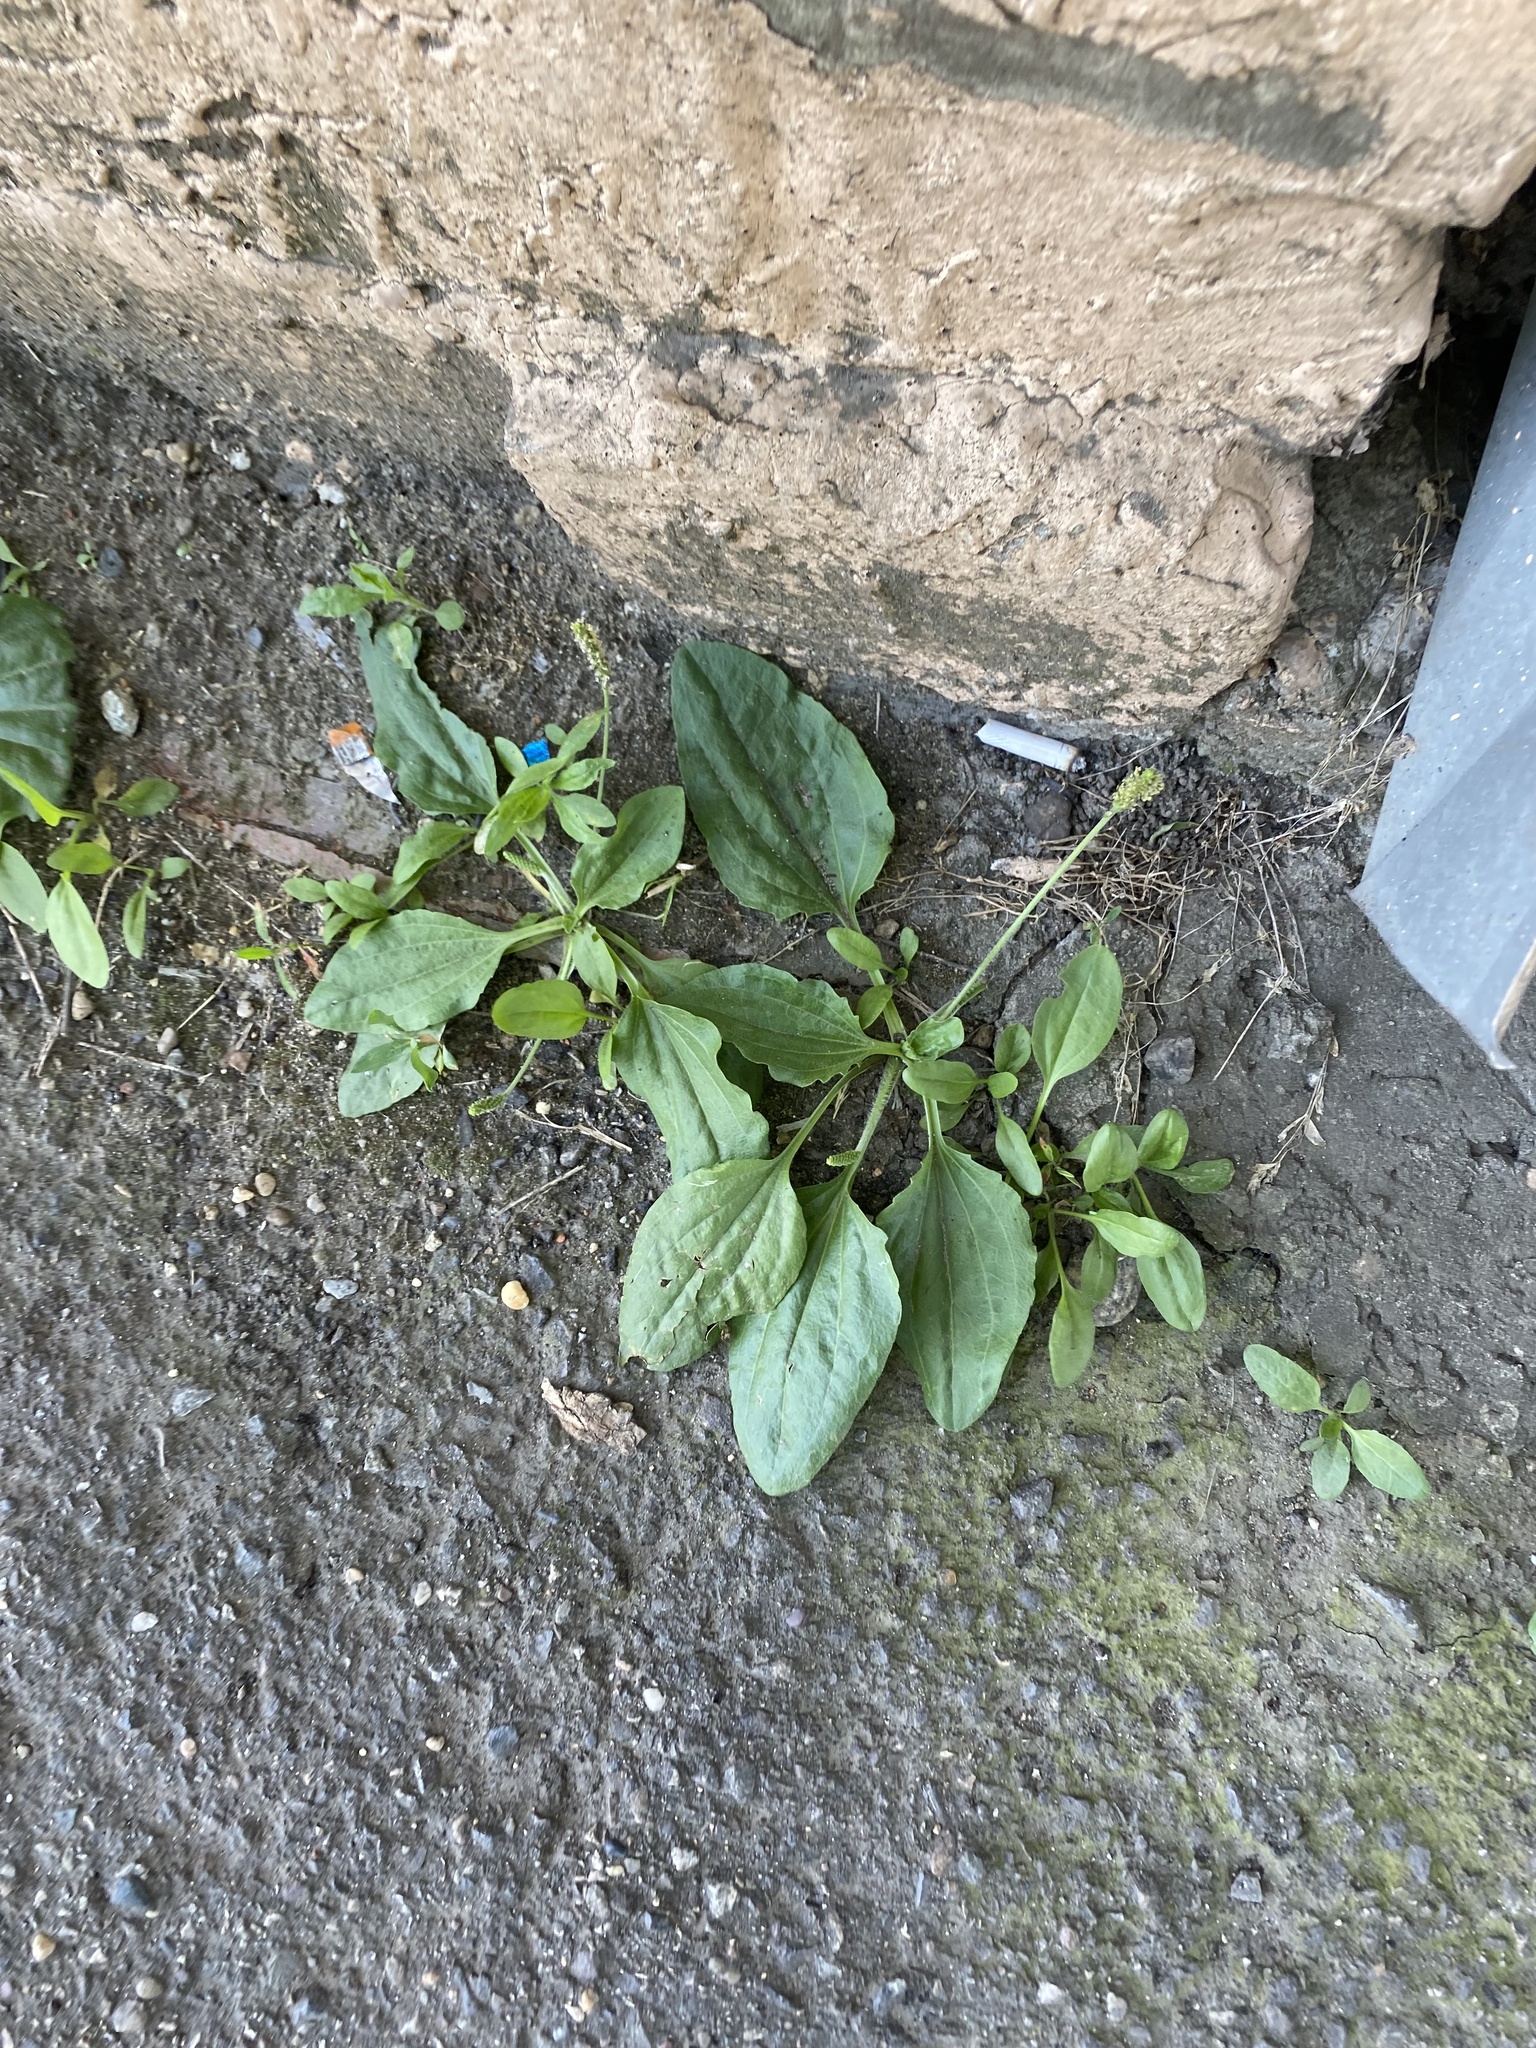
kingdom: Plantae
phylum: Tracheophyta
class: Magnoliopsida
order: Lamiales
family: Plantaginaceae
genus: Plantago
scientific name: Plantago major
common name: Common plantain
